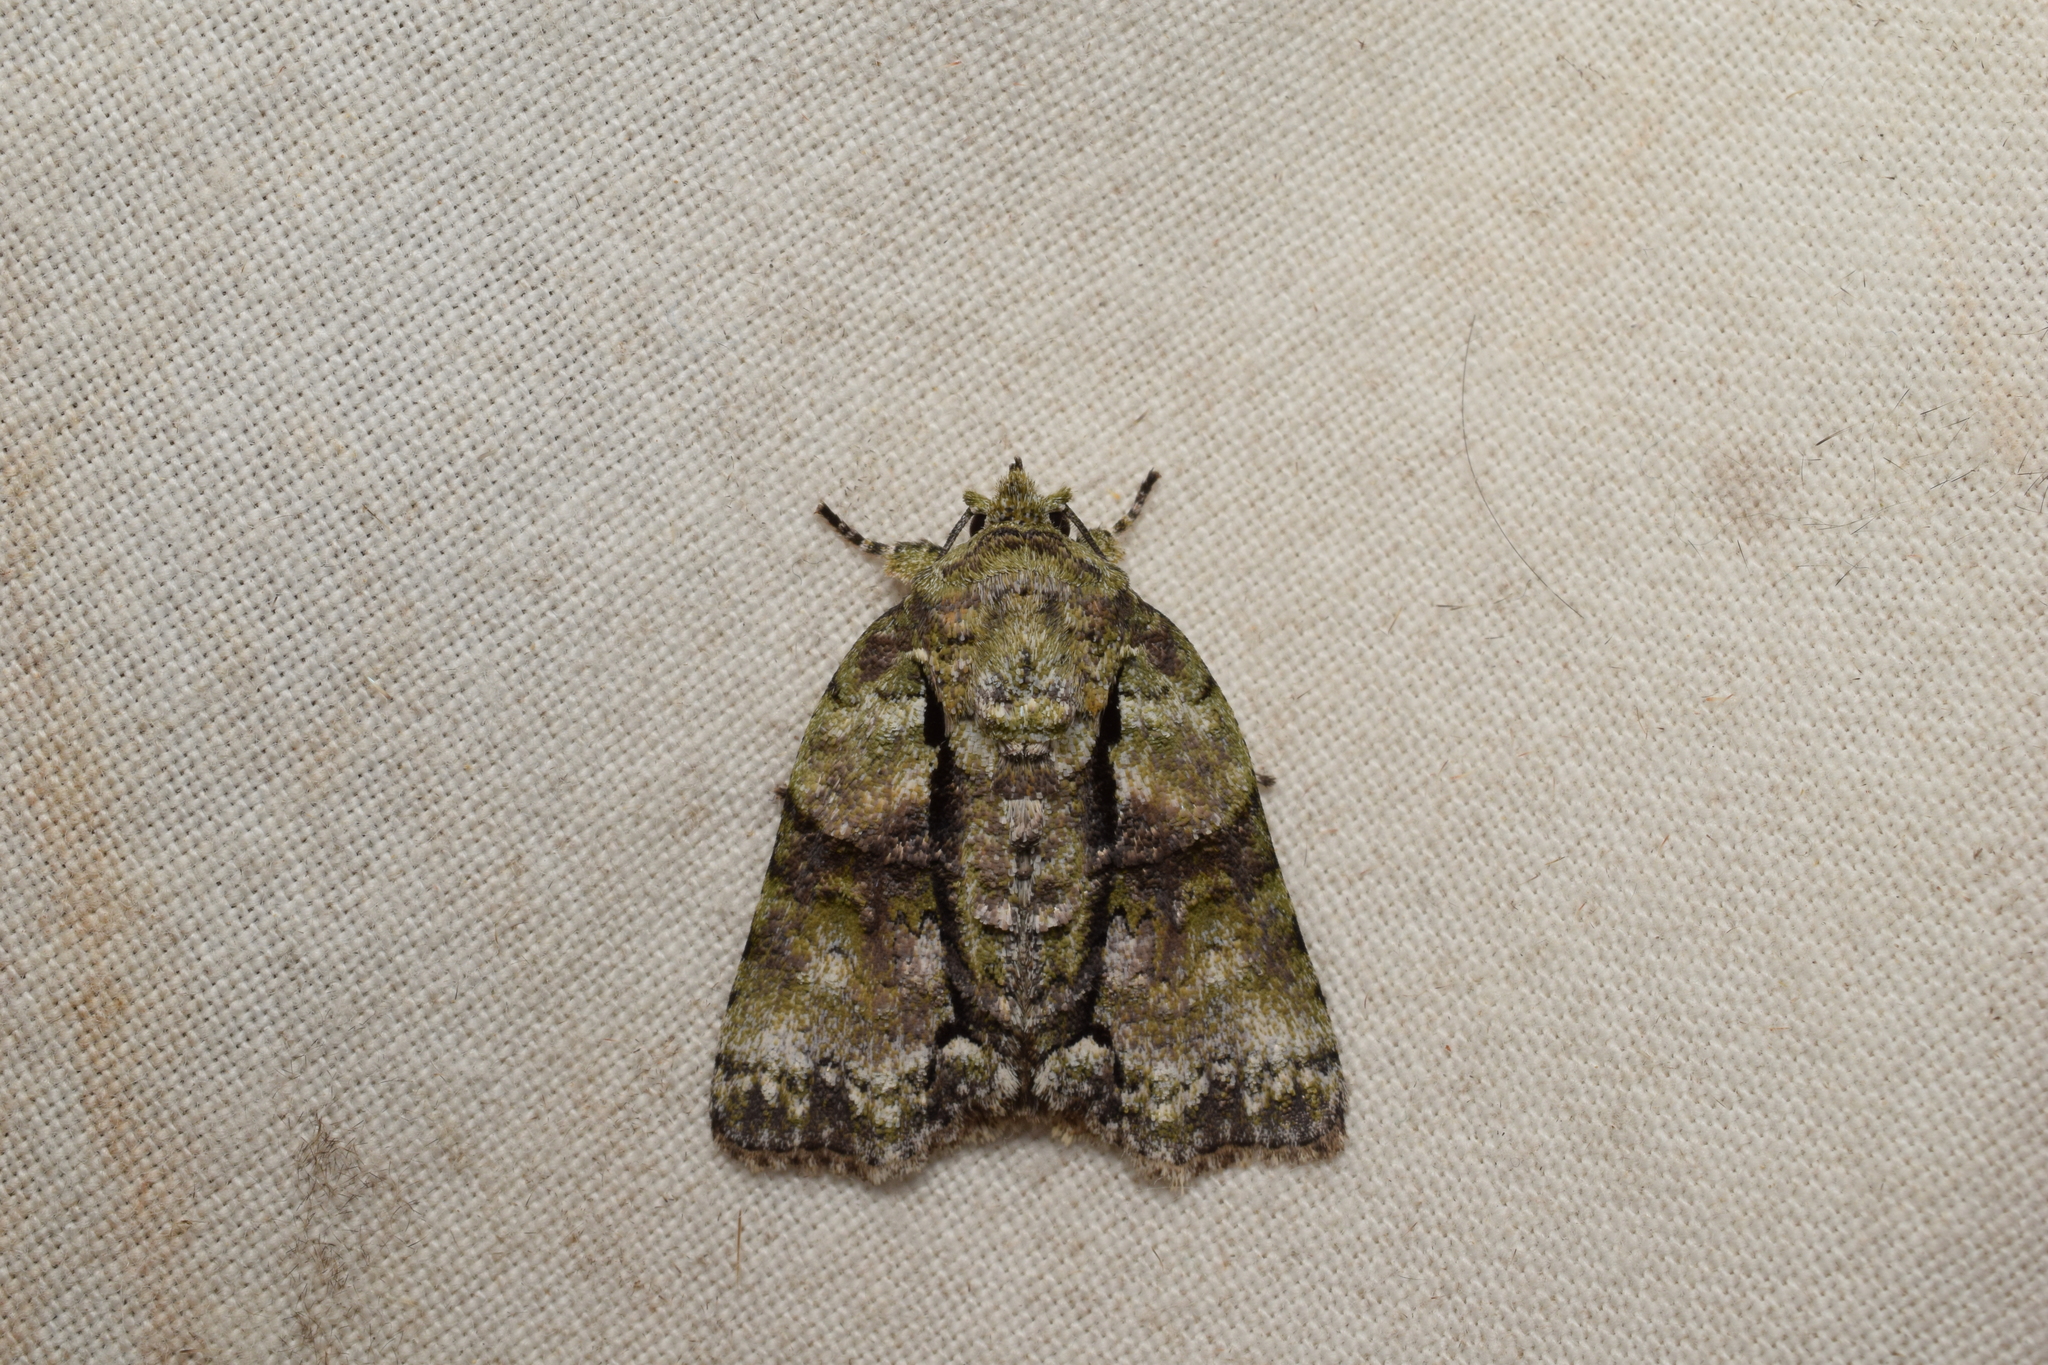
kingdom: Animalia
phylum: Arthropoda
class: Insecta
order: Lepidoptera
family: Nolidae
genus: Blenina
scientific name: Blenina senex
